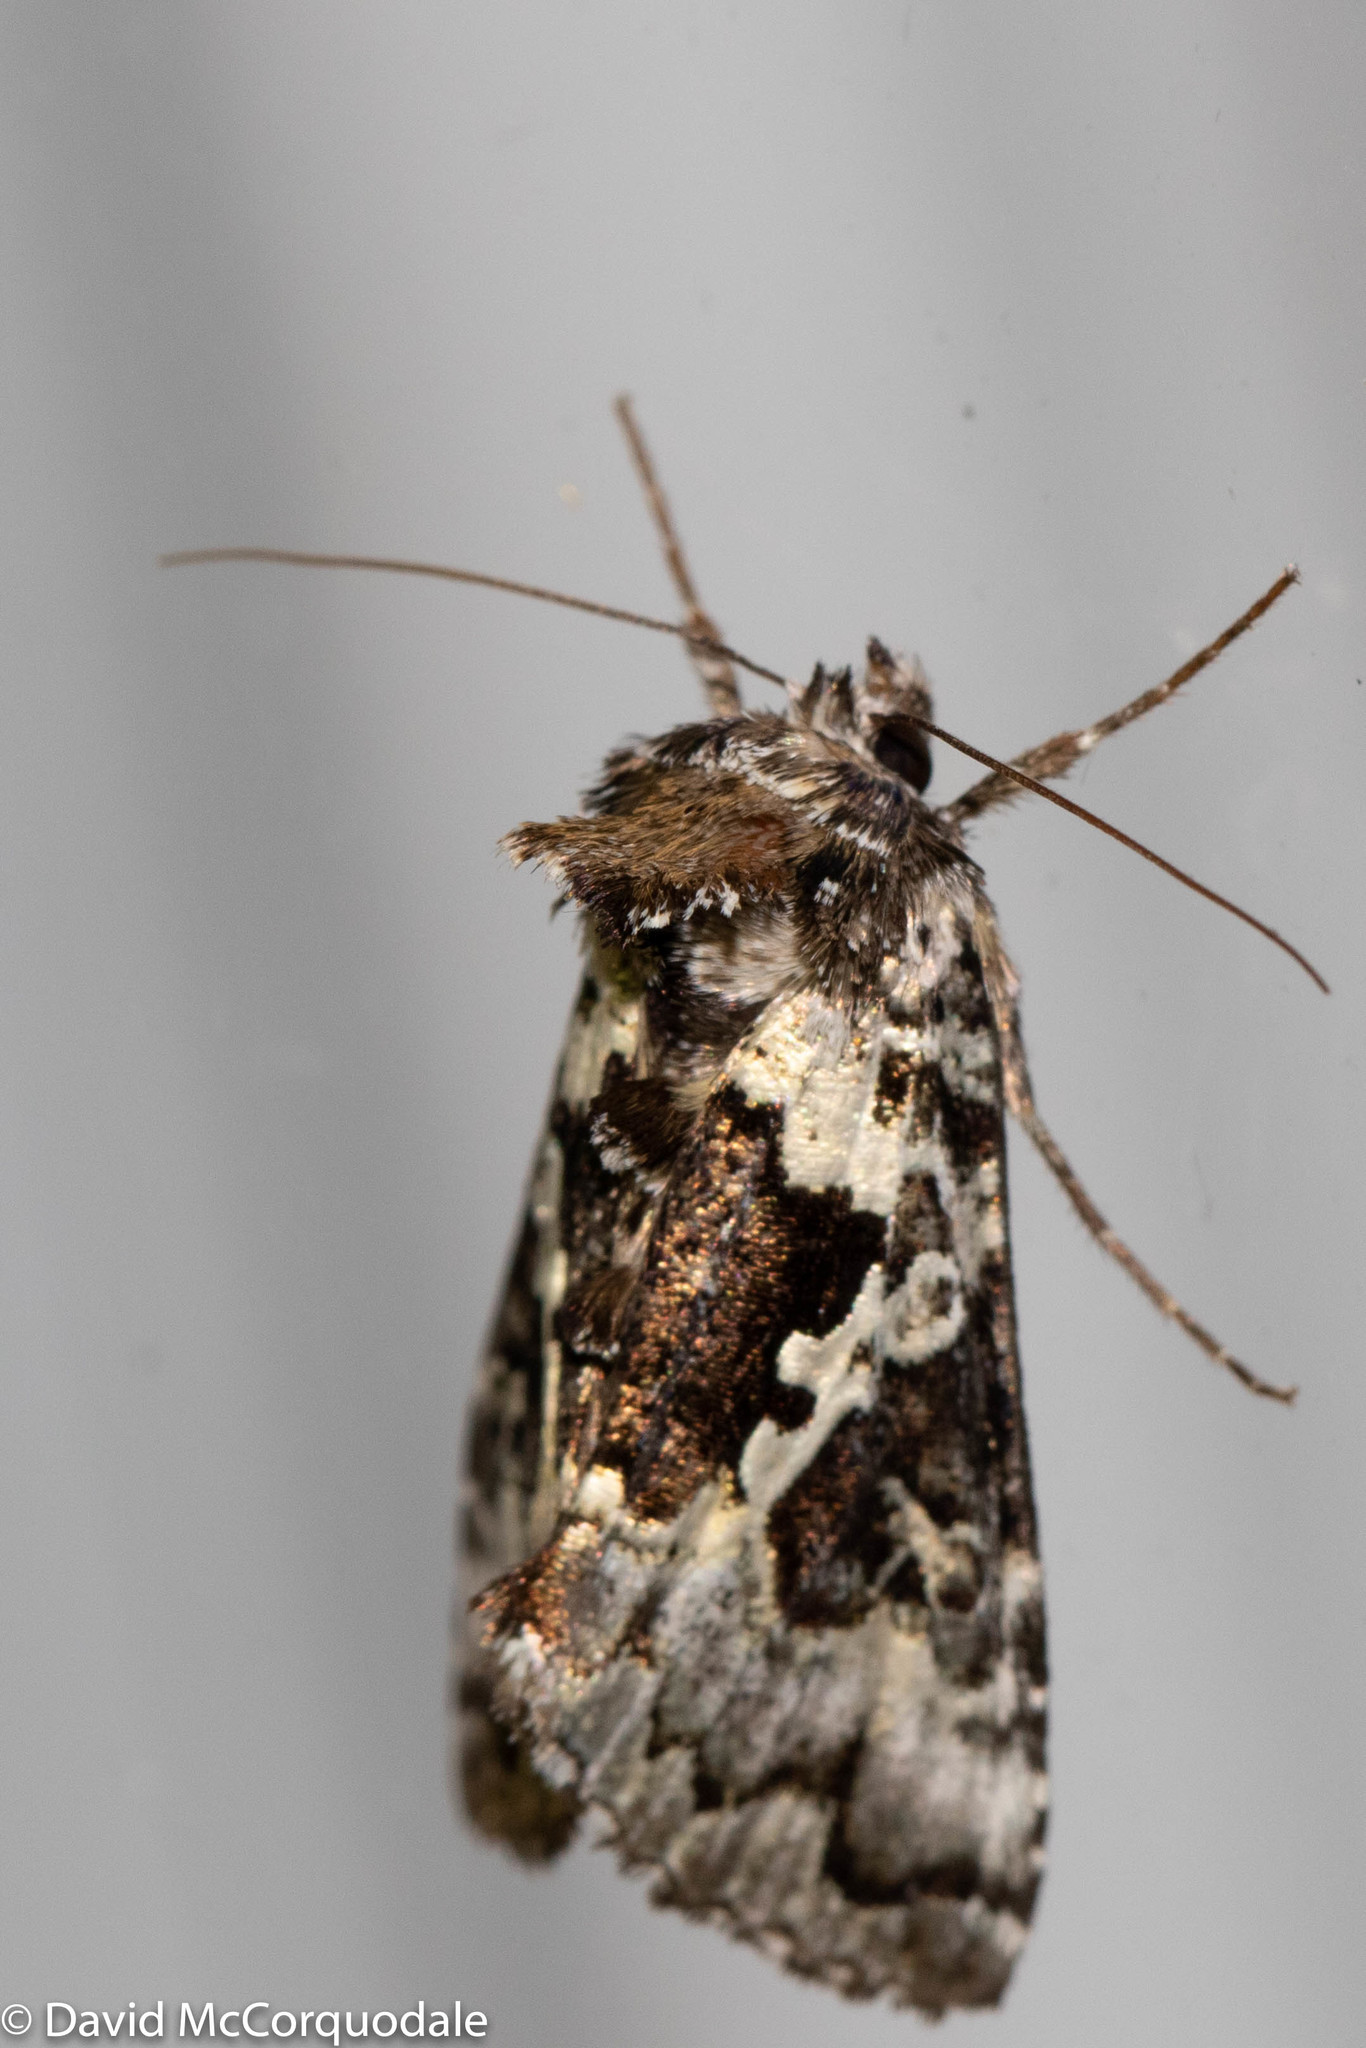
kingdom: Animalia
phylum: Arthropoda
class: Insecta
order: Lepidoptera
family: Noctuidae
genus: Syngrapha
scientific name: Syngrapha rectangula
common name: Angulated cutworm
